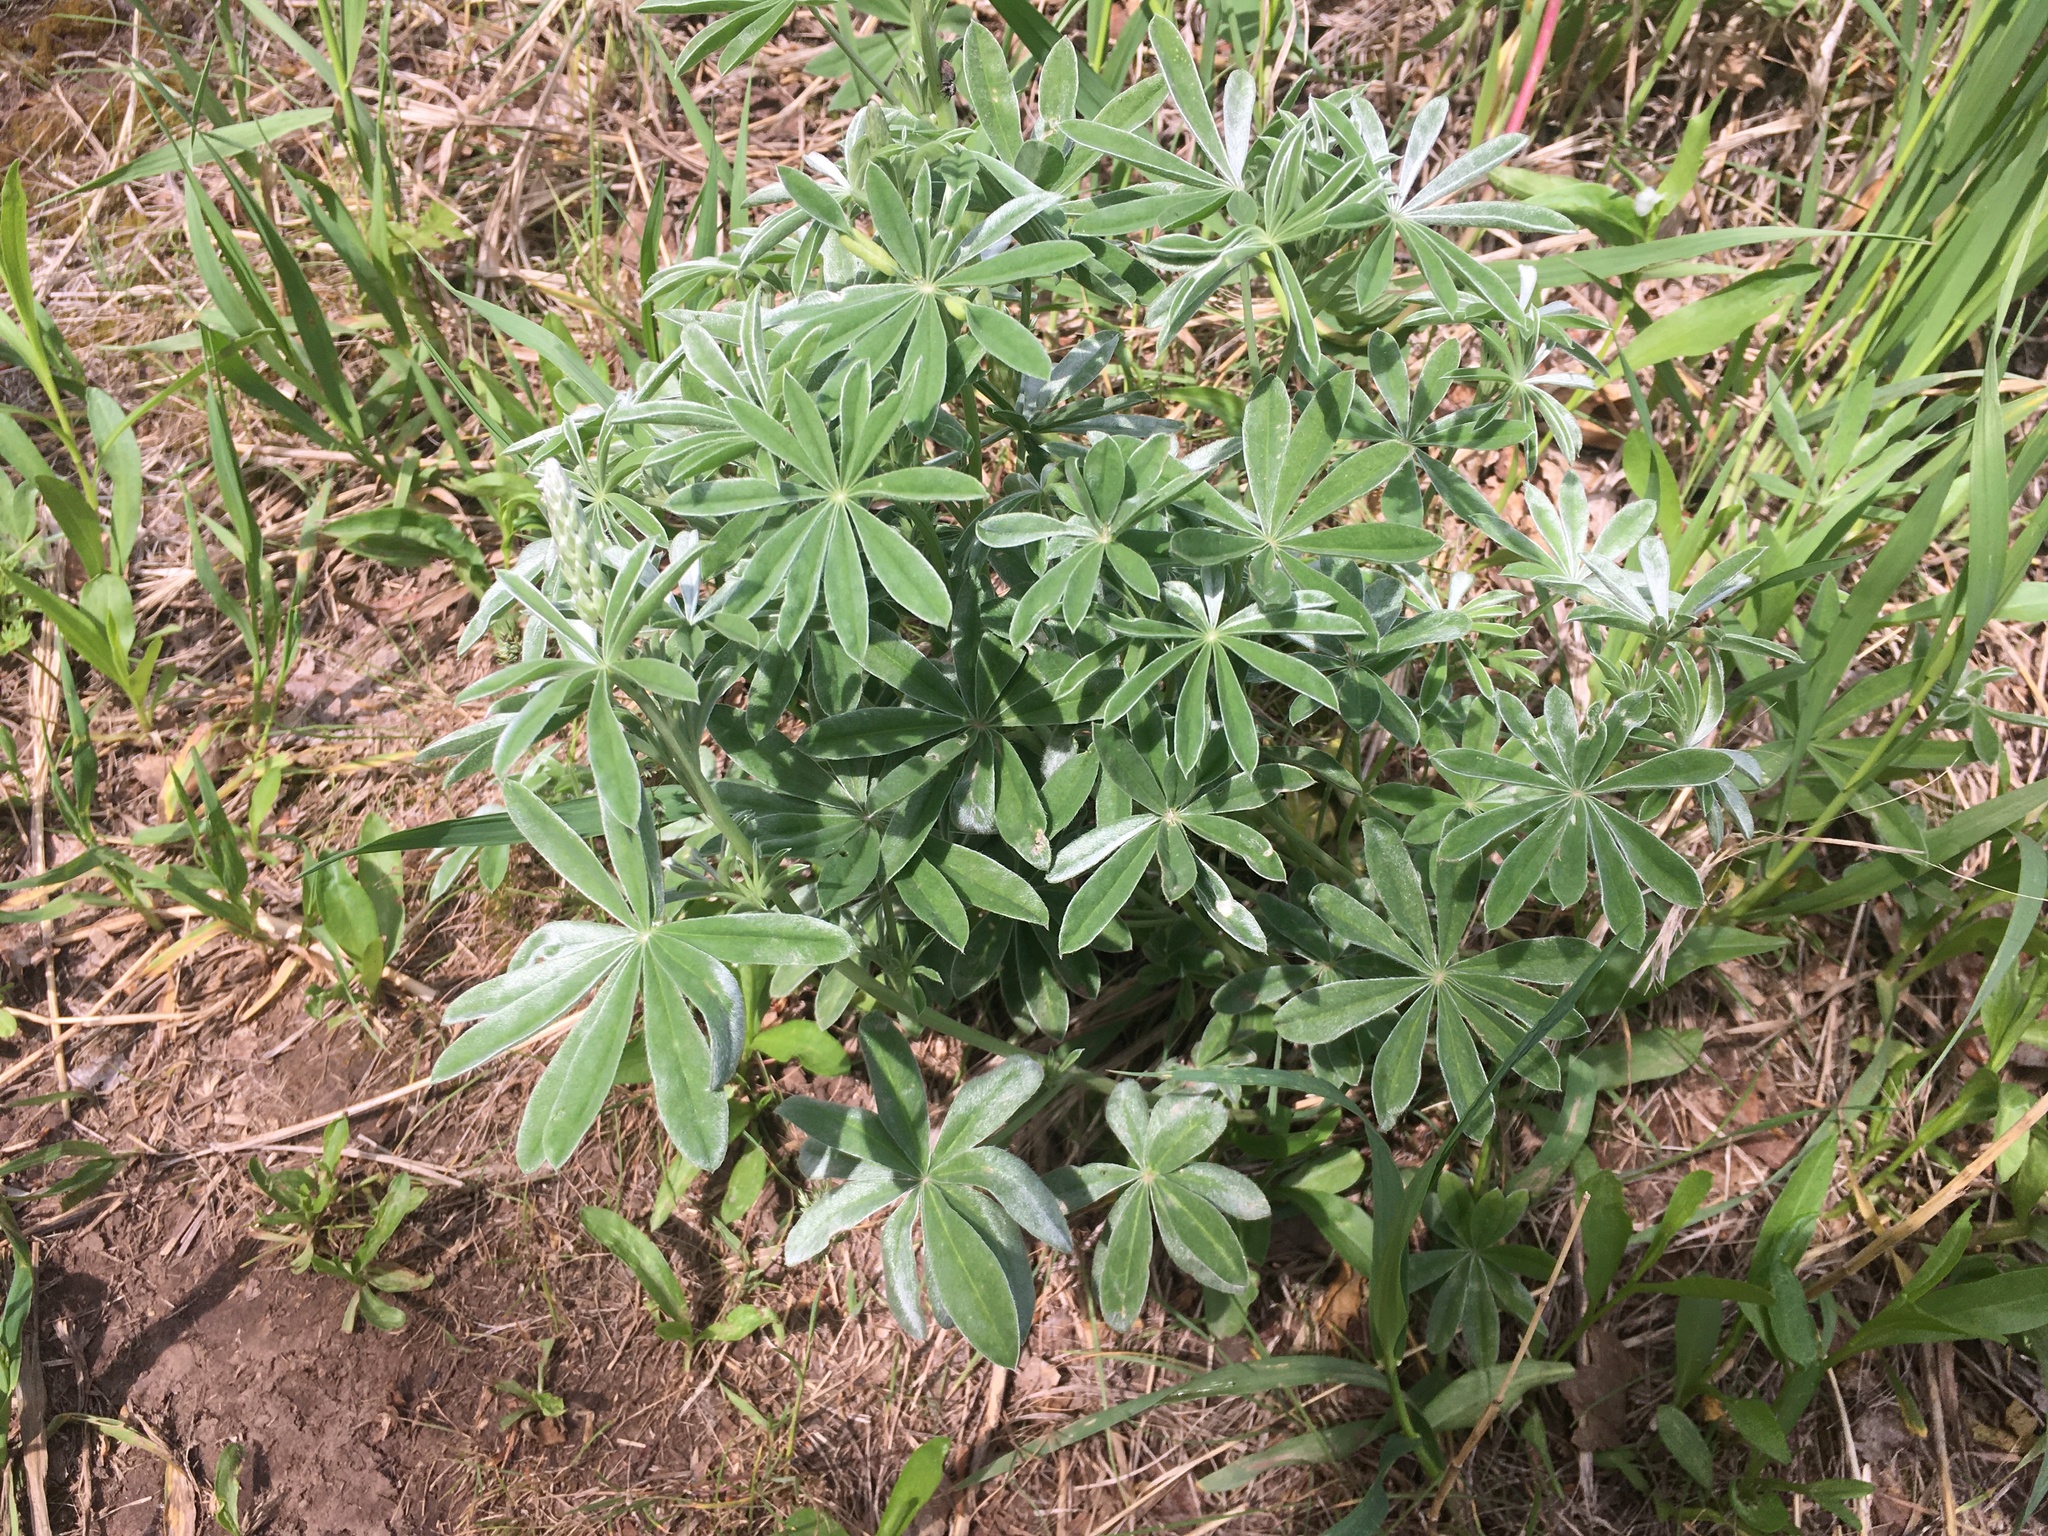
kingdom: Plantae
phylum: Tracheophyta
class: Magnoliopsida
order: Fabales
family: Fabaceae
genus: Lupinus
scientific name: Lupinus argenteus
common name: Silvery lupine
